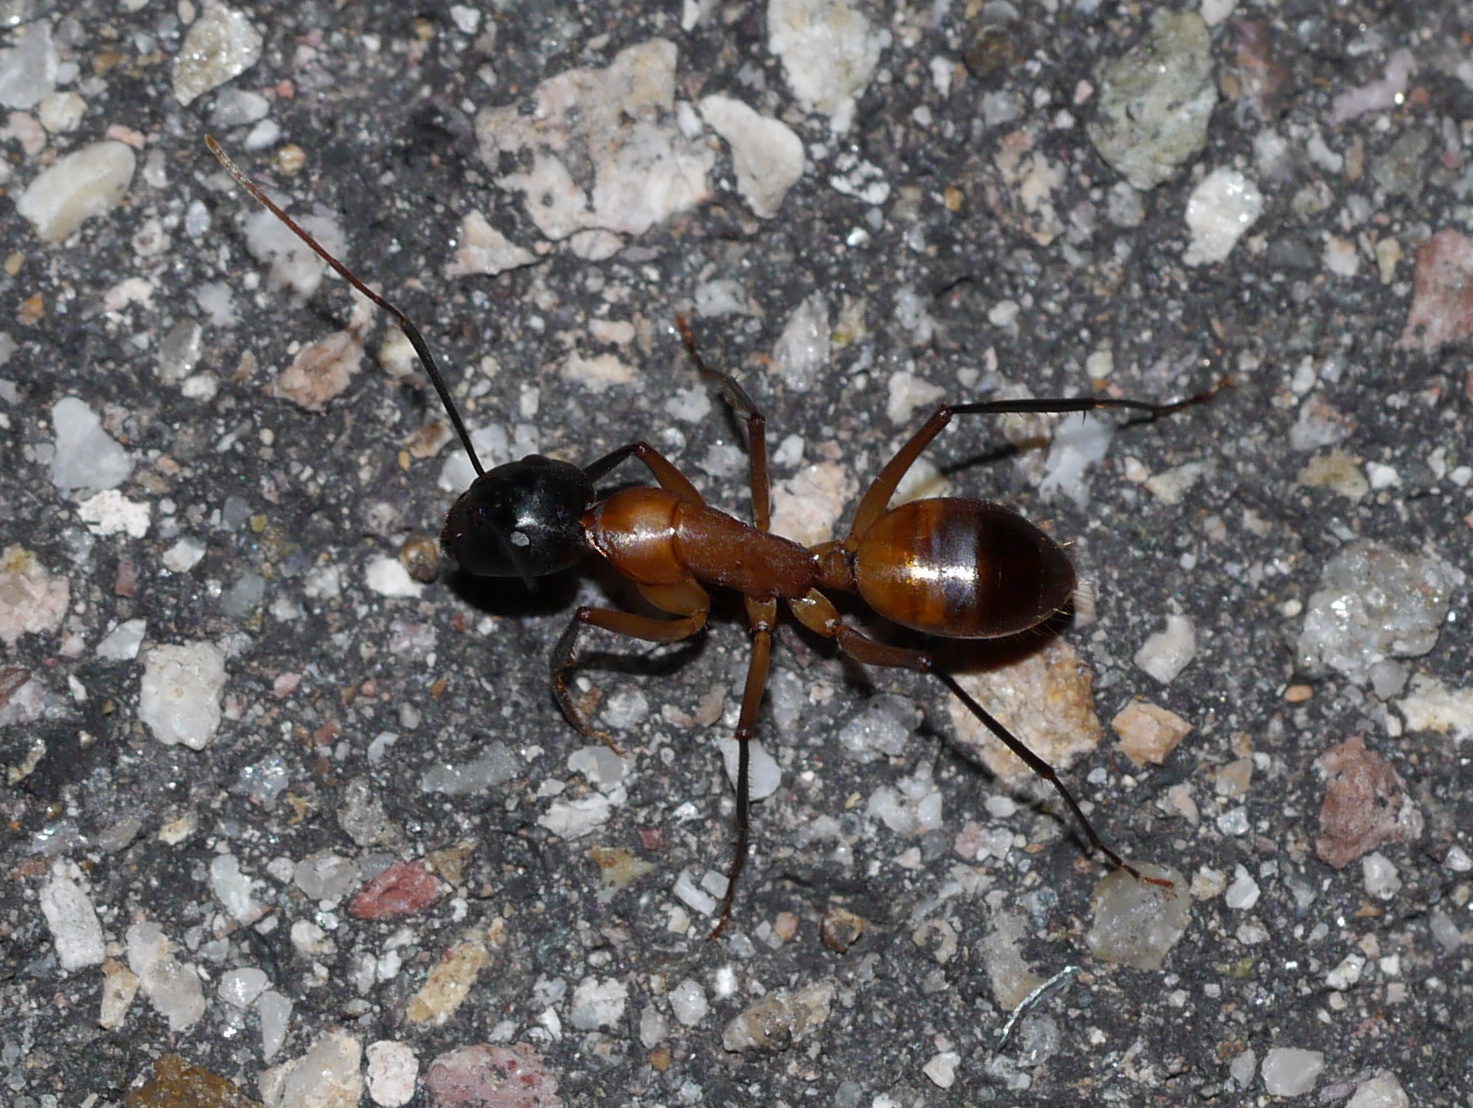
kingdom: Animalia
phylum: Arthropoda
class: Insecta
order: Hymenoptera
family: Formicidae
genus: Camponotus
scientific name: Camponotus ocreatus
